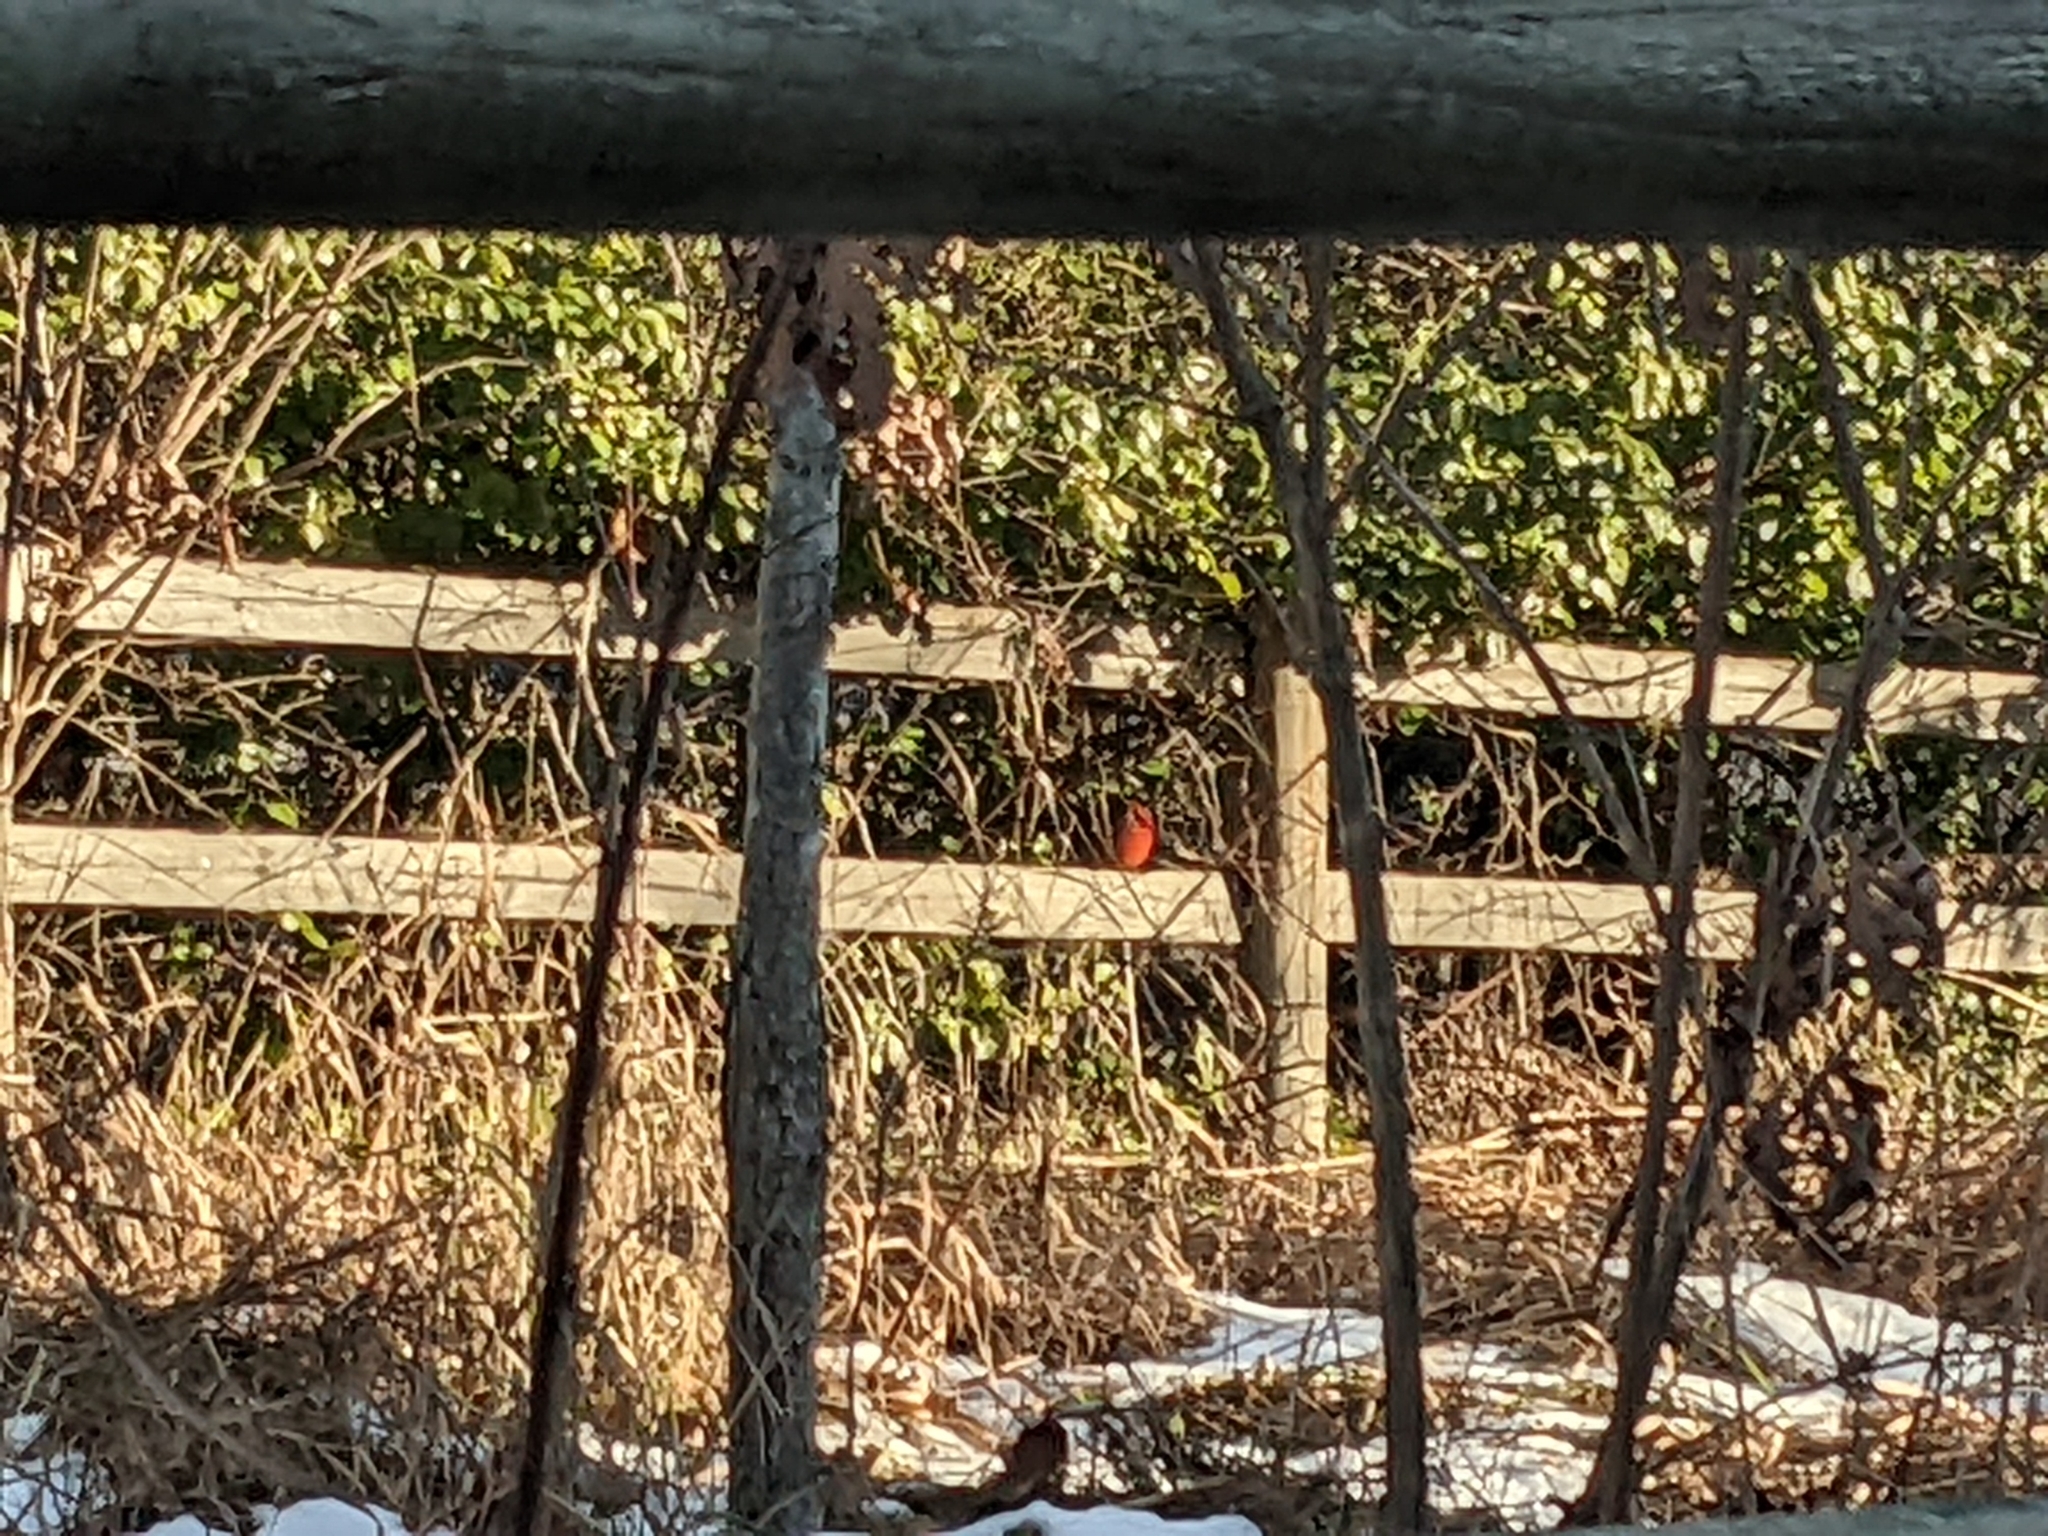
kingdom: Animalia
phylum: Chordata
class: Aves
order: Passeriformes
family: Cardinalidae
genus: Cardinalis
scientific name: Cardinalis cardinalis
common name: Northern cardinal
